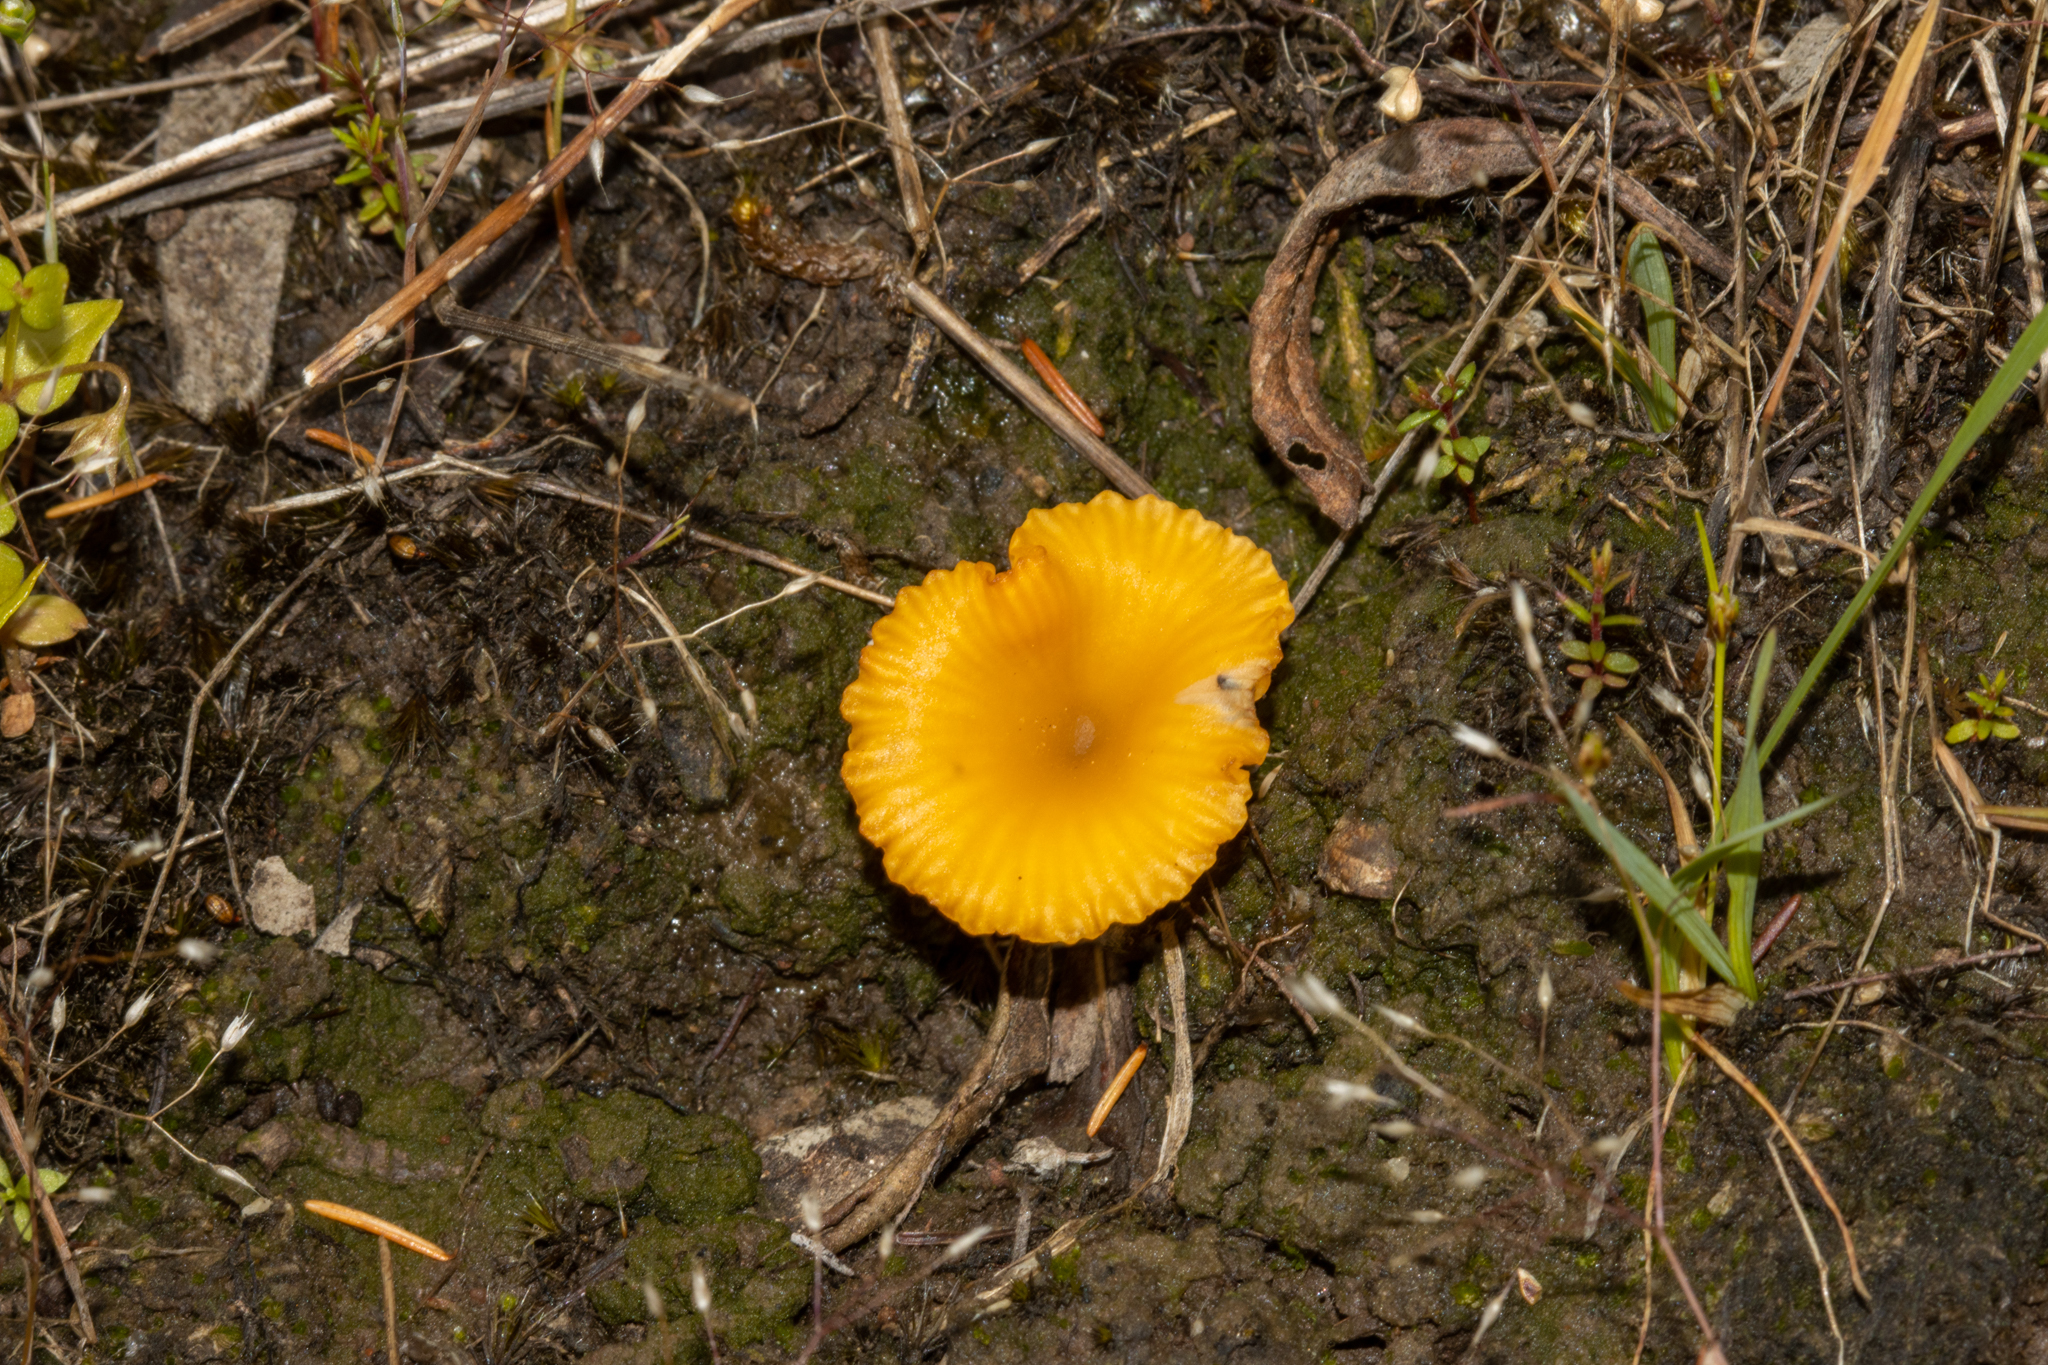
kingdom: Fungi
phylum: Basidiomycota
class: Agaricomycetes
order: Agaricales
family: Hygrophoraceae
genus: Lichenomphalia
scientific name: Lichenomphalia chromacea
